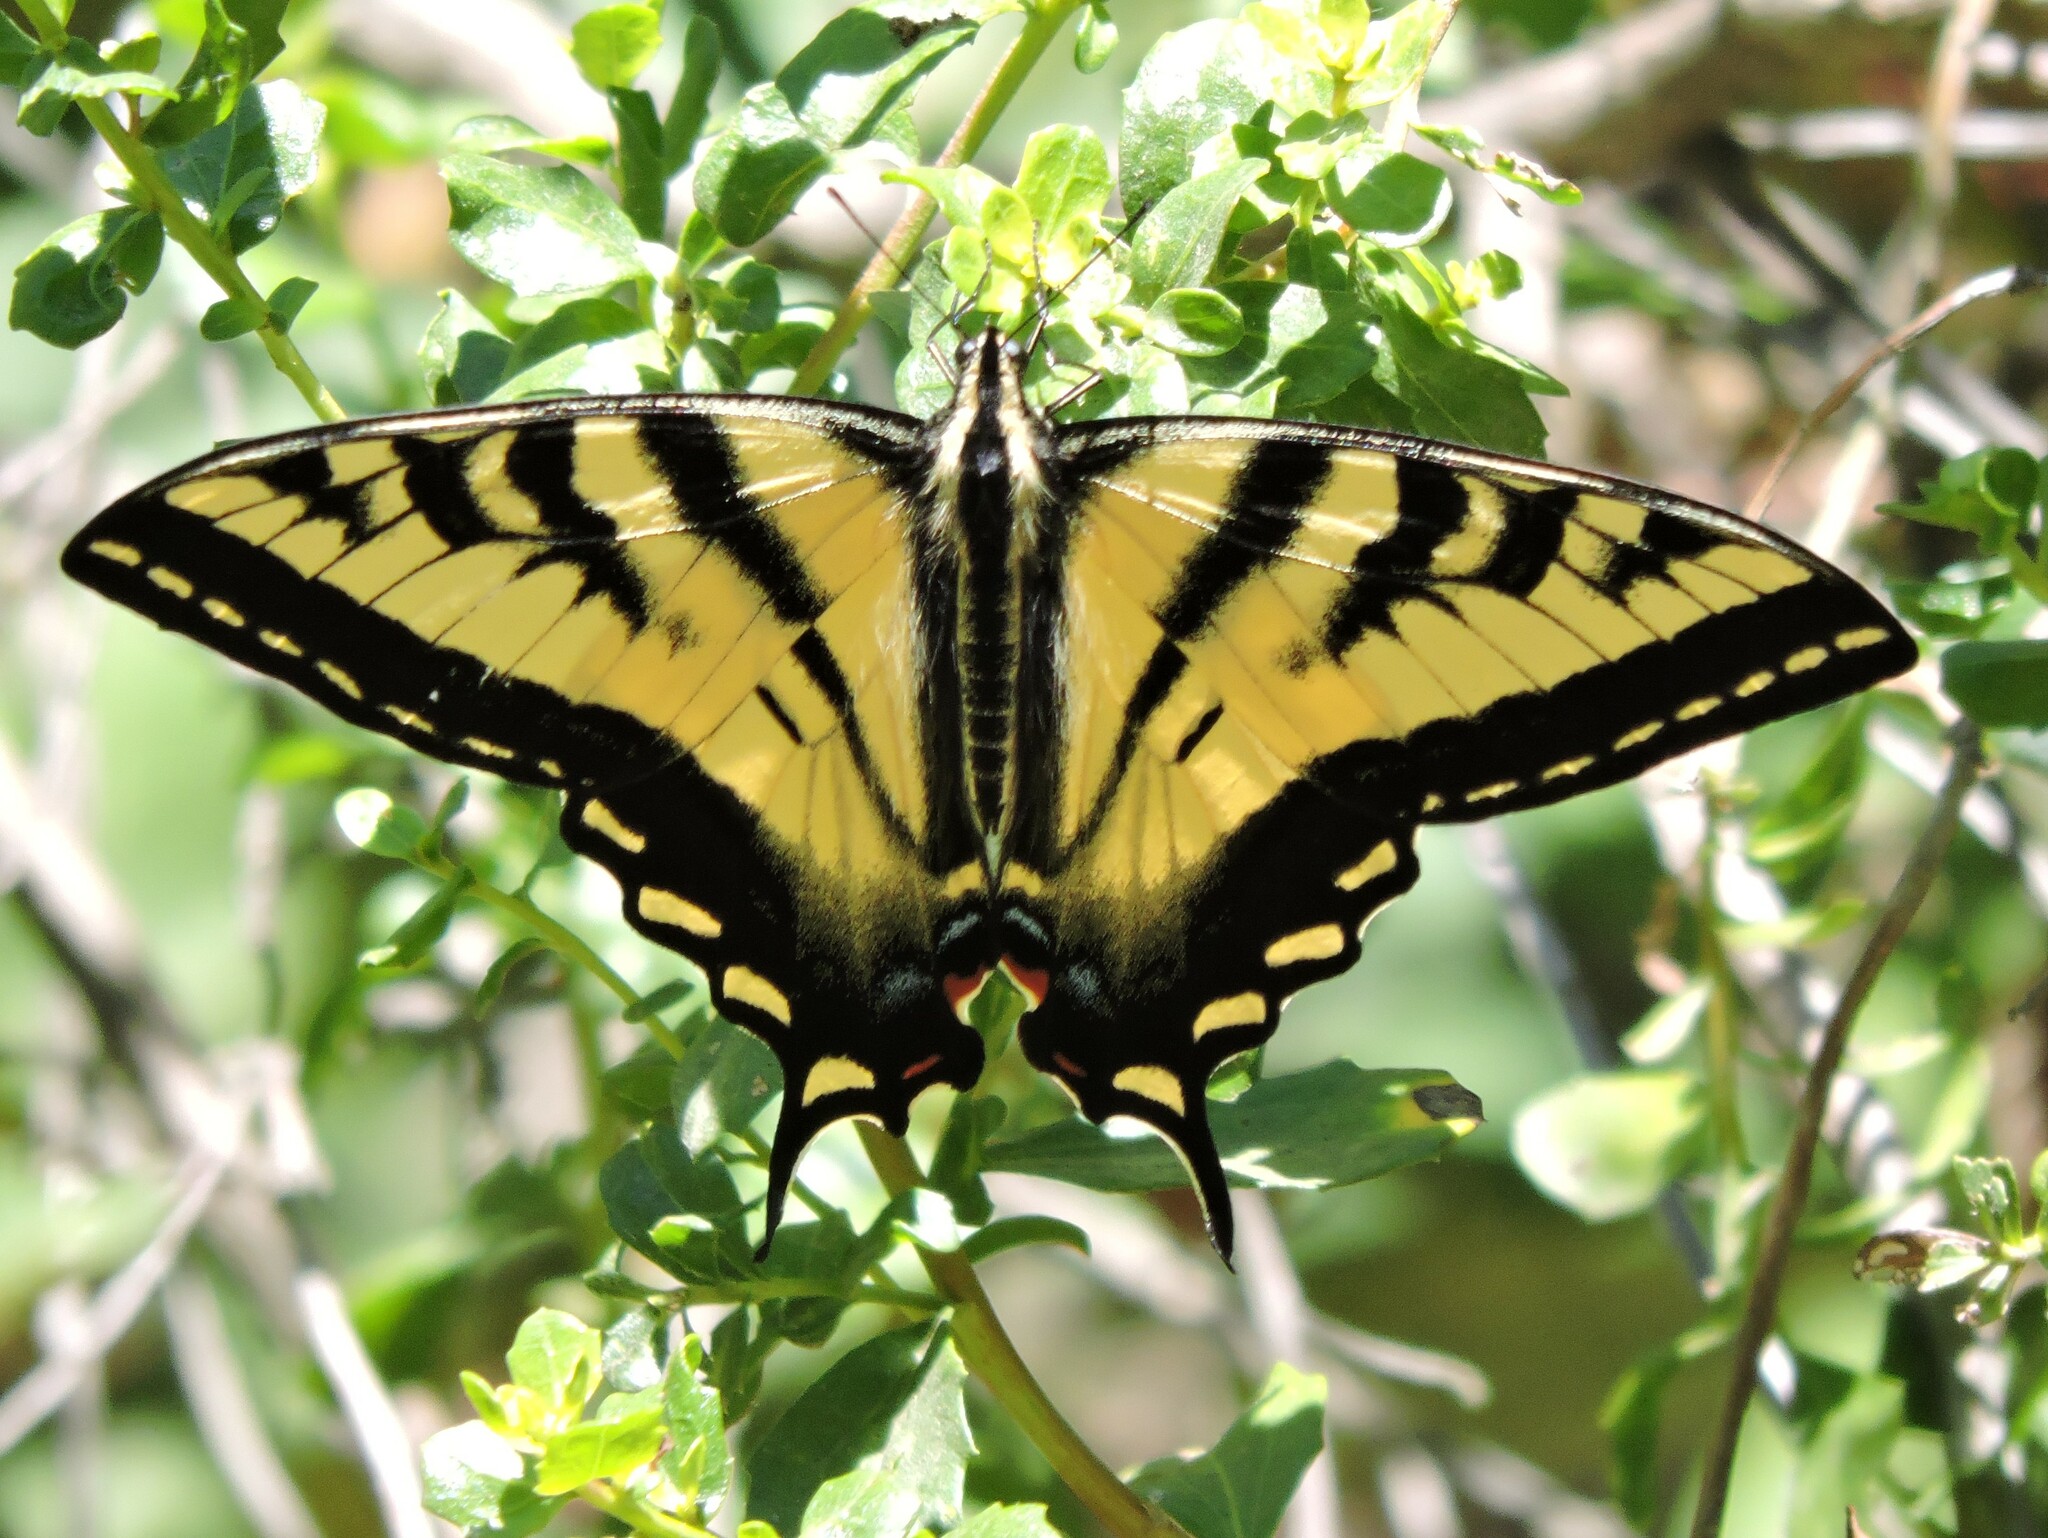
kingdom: Animalia
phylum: Arthropoda
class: Insecta
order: Lepidoptera
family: Papilionidae
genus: Papilio
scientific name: Papilio rutulus
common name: Western tiger swallowtail
